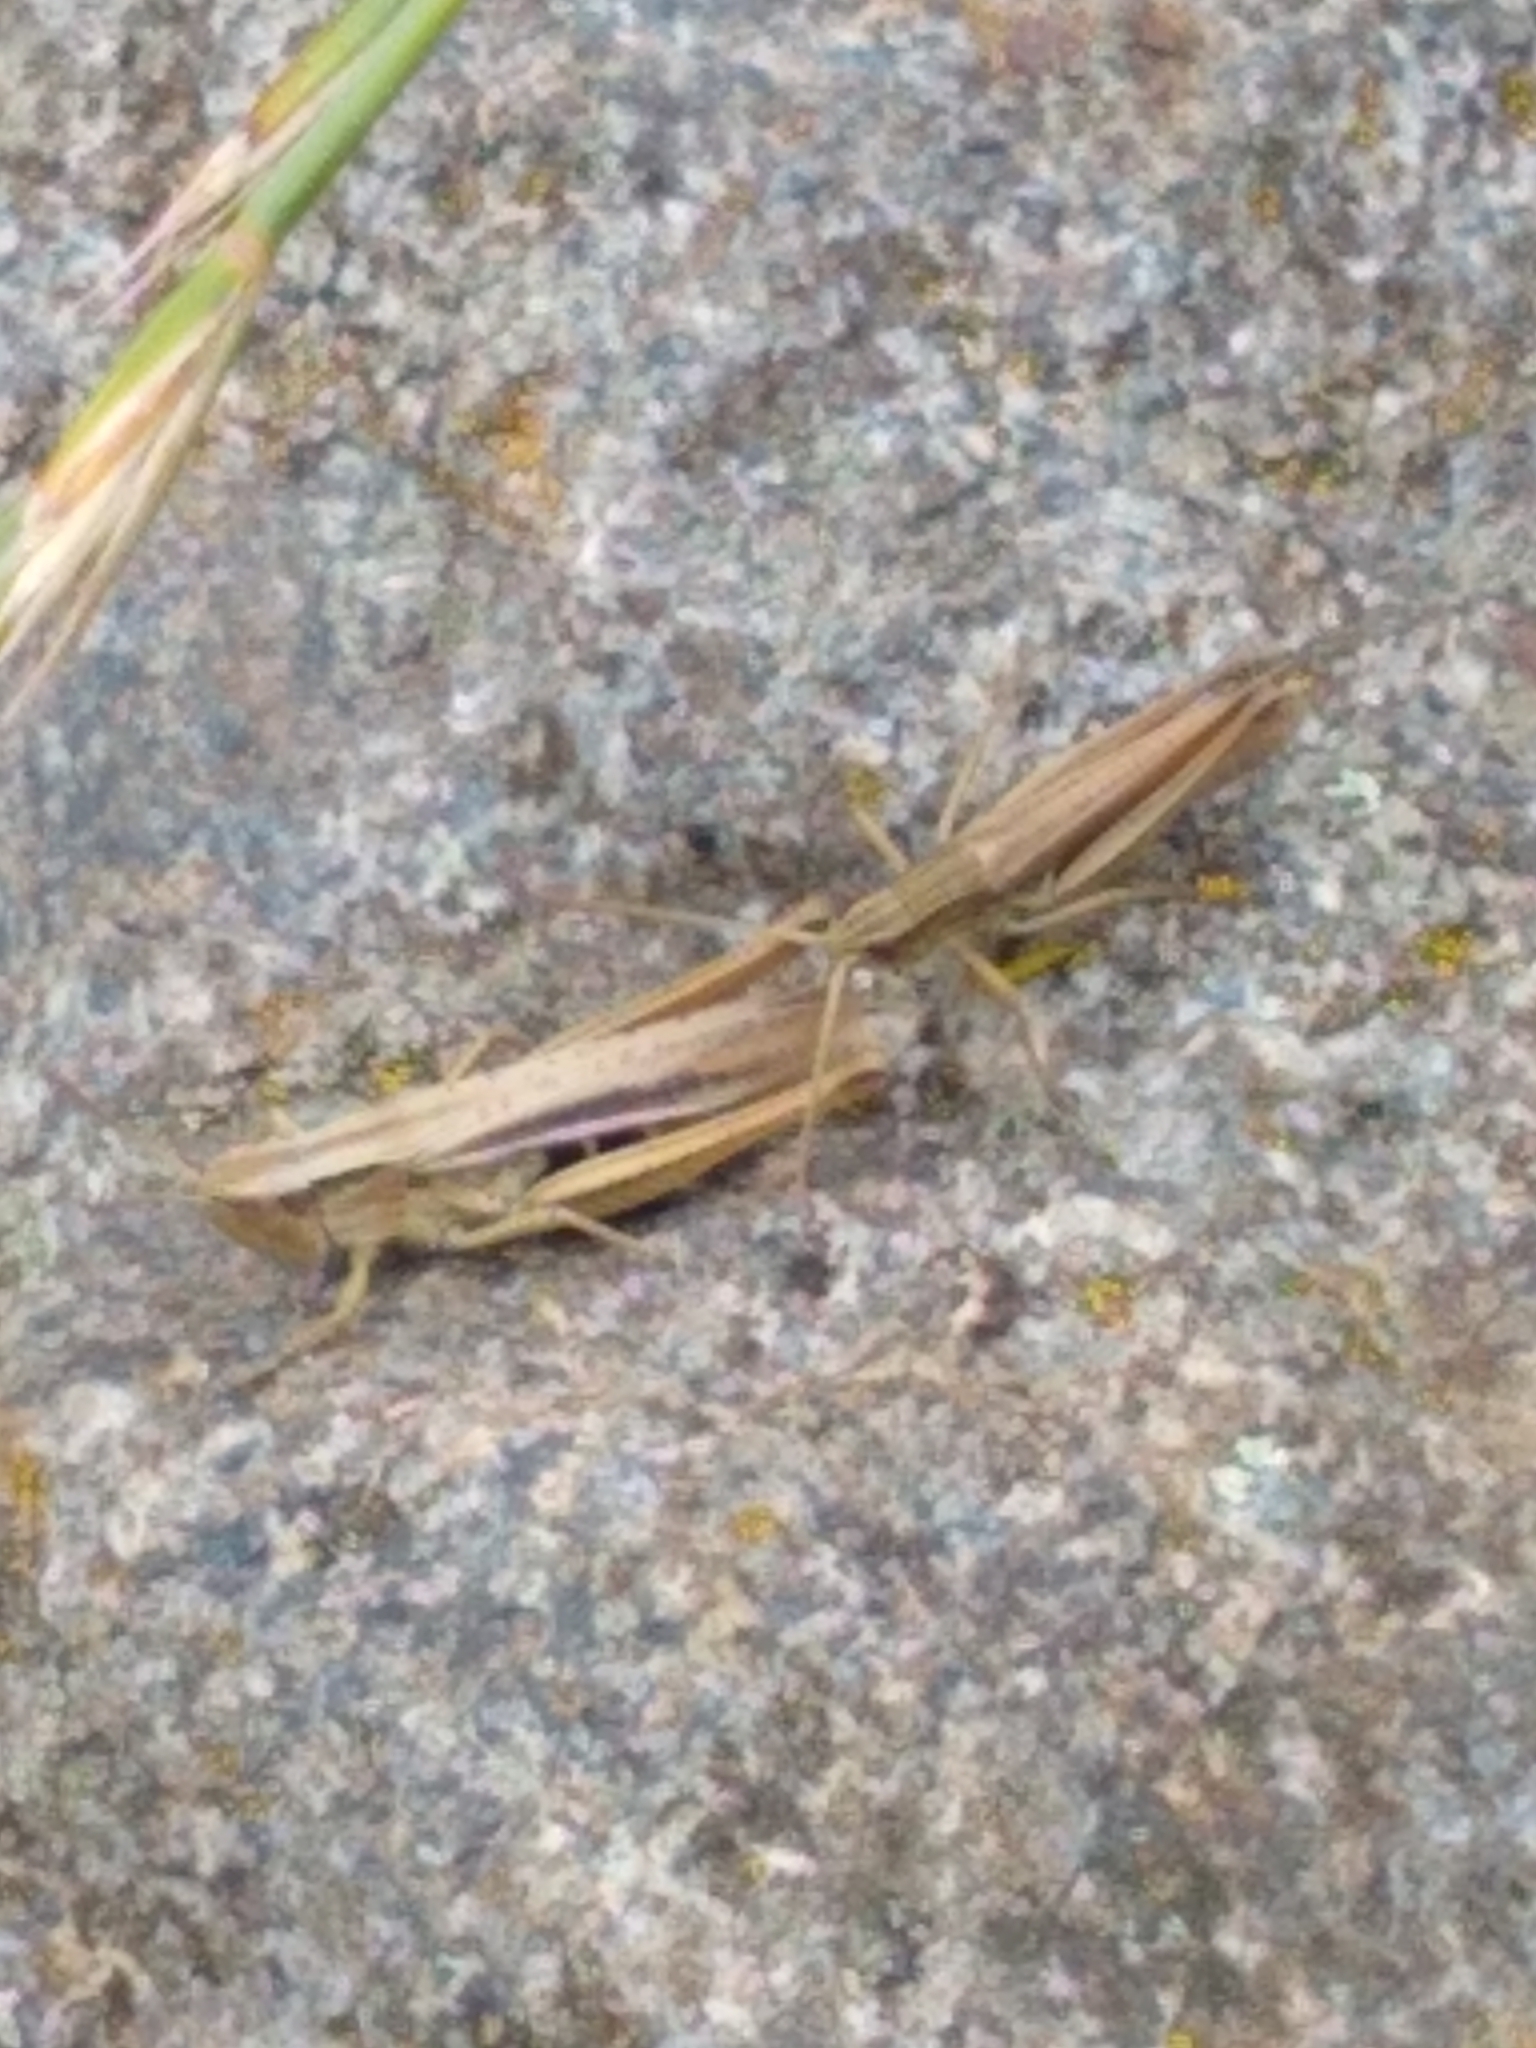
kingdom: Animalia
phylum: Arthropoda
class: Insecta
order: Orthoptera
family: Acrididae
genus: Chorthippus
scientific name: Chorthippus albomarginatus
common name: Lesser marsh grasshopper
